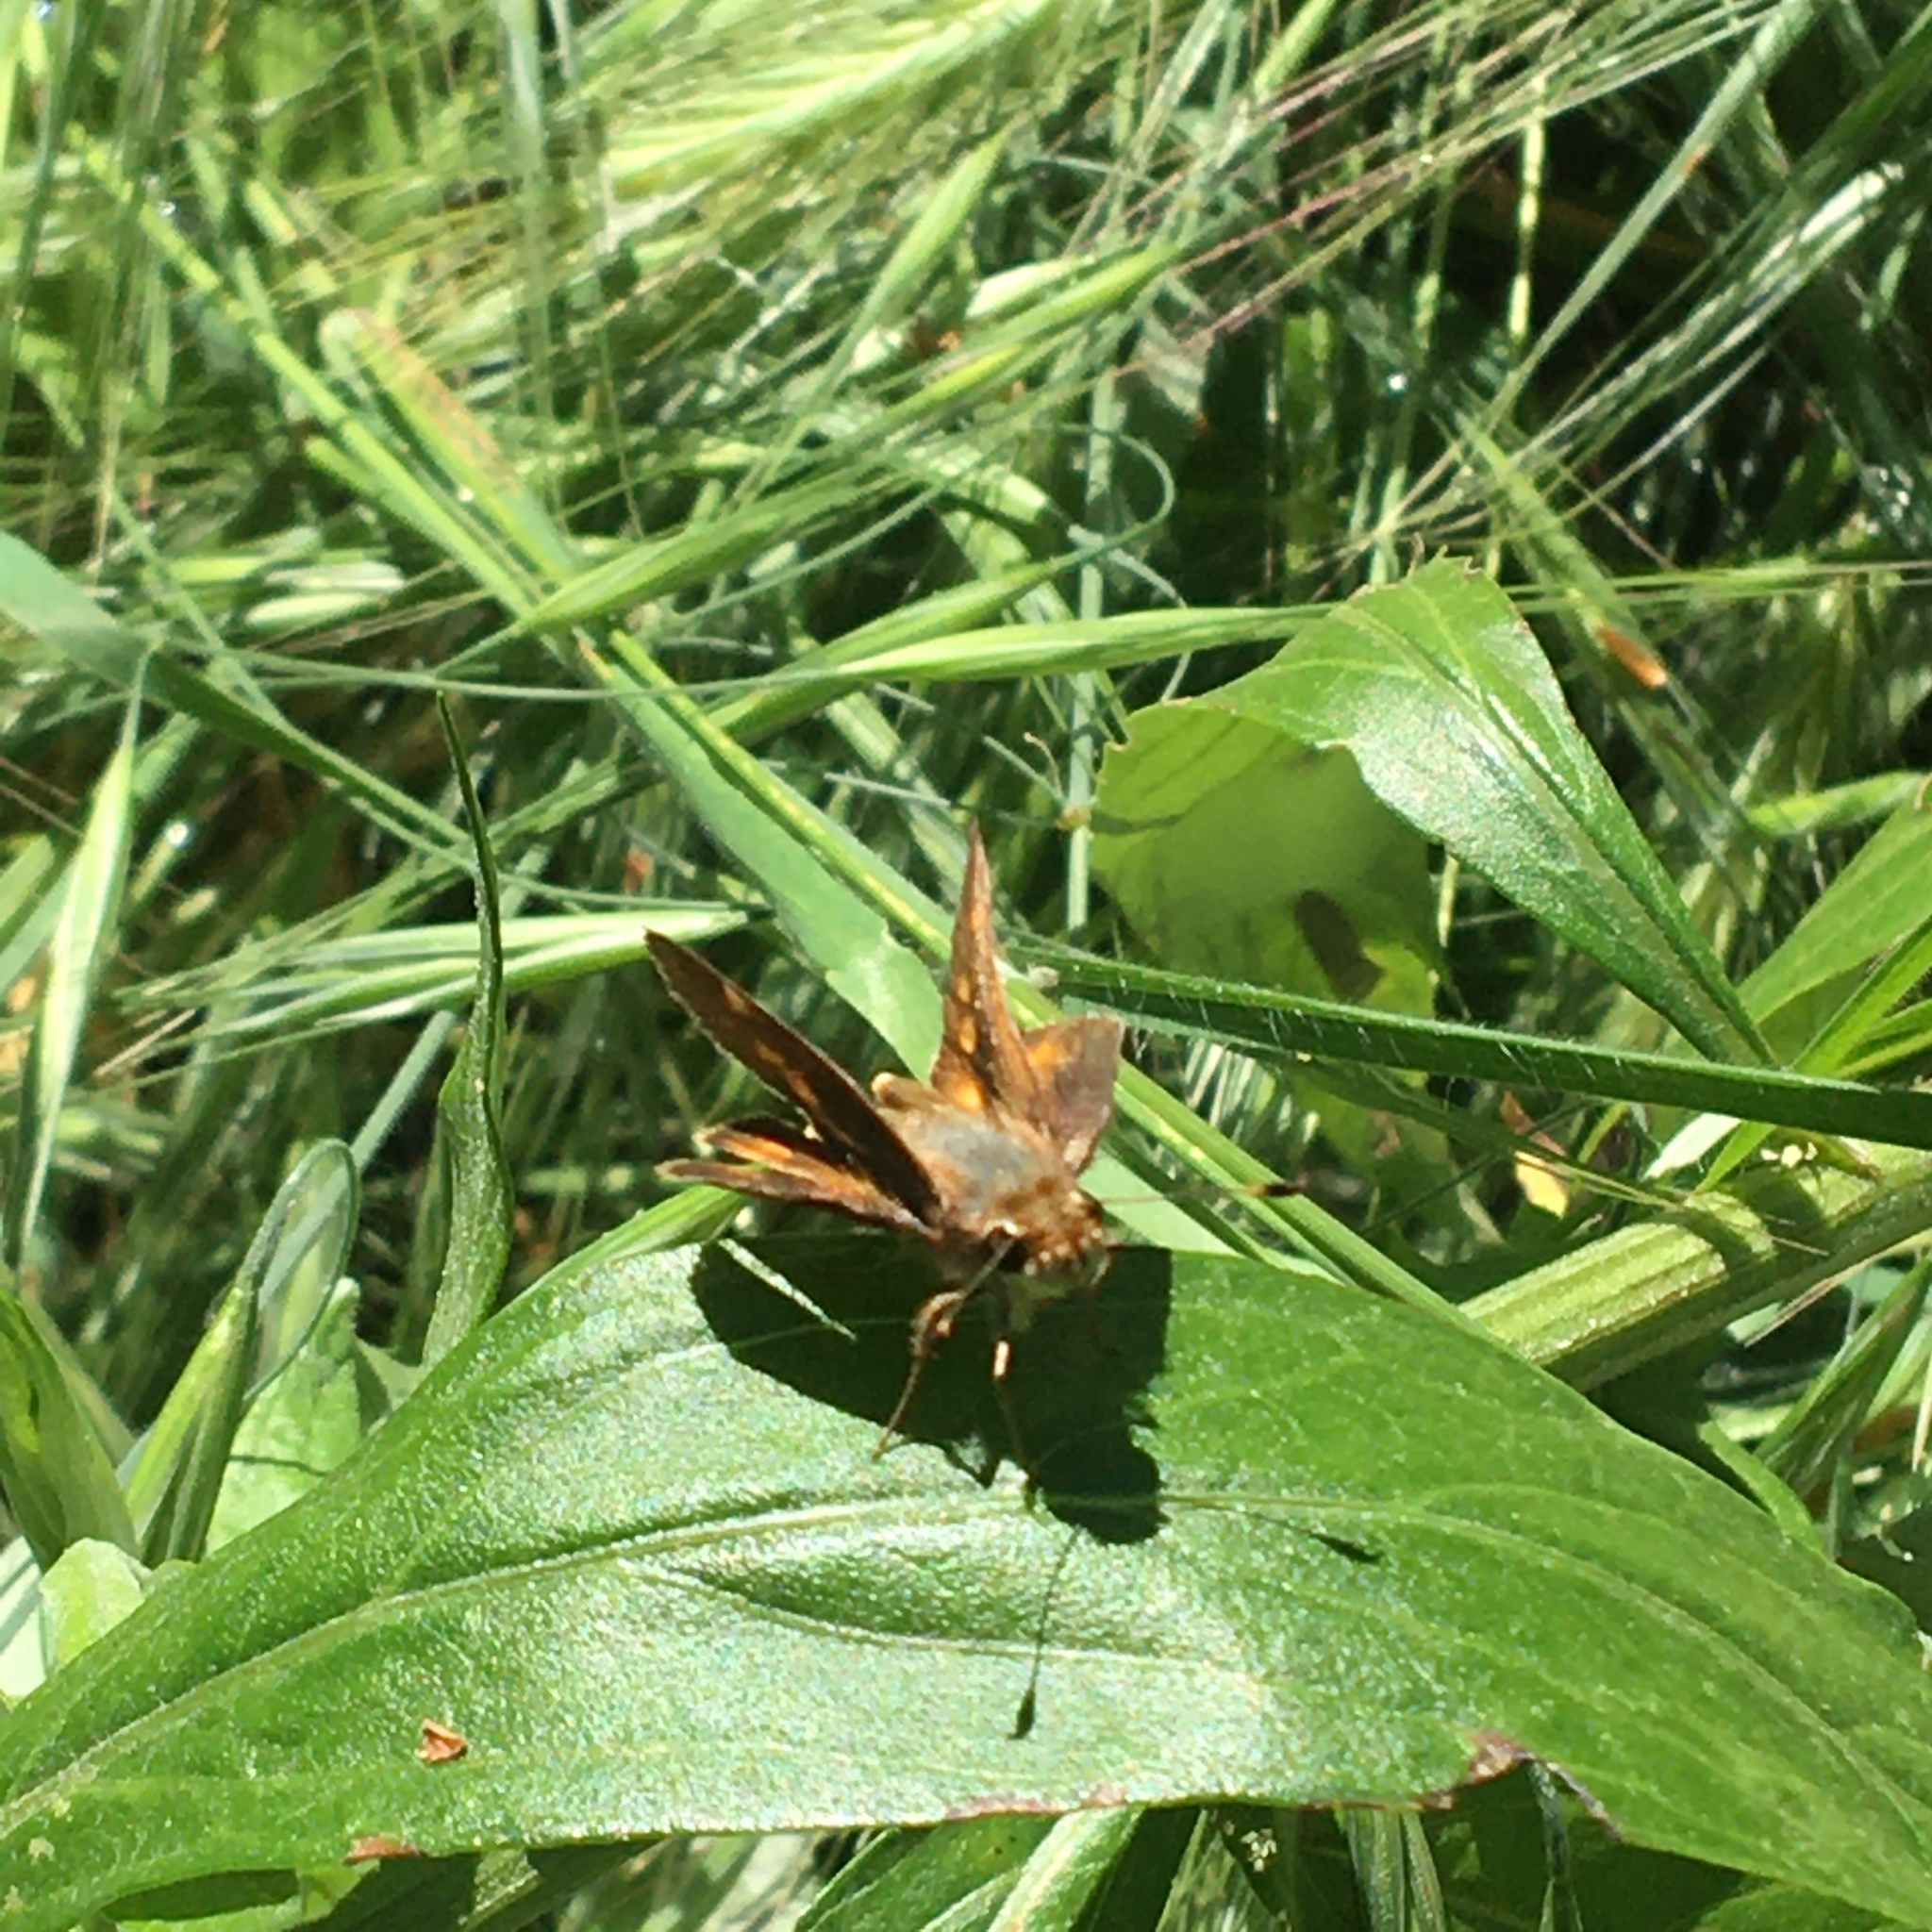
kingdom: Animalia
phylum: Arthropoda
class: Insecta
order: Lepidoptera
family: Hesperiidae
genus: Lon
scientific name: Lon melane
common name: Umber skipper
